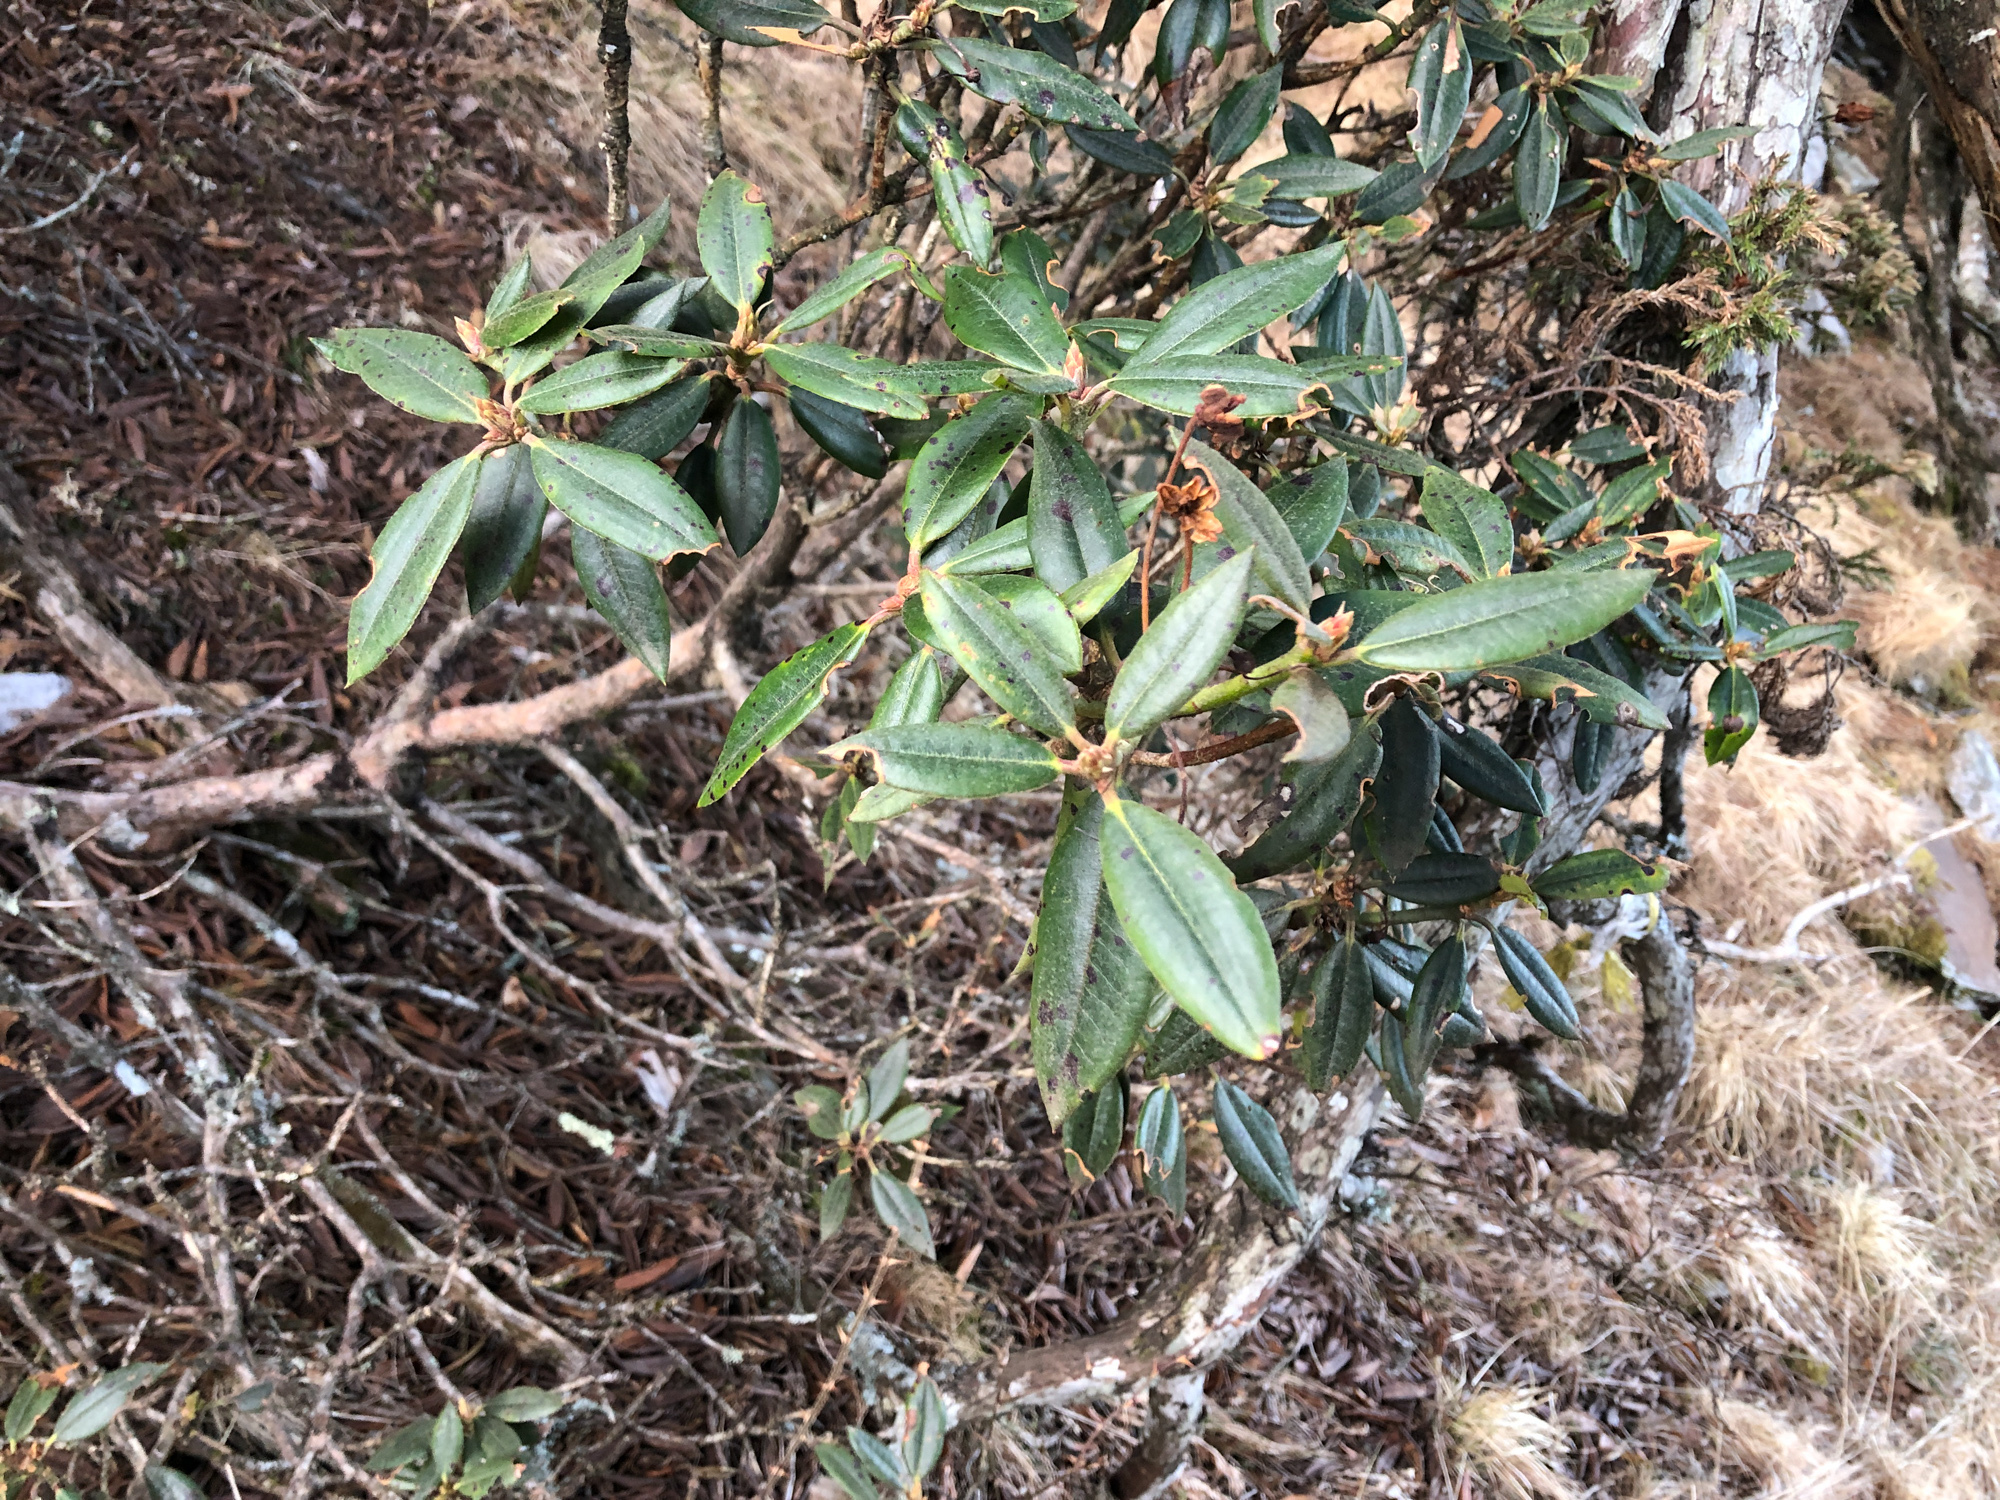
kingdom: Plantae
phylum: Tracheophyta
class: Magnoliopsida
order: Ericales
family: Ericaceae
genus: Rhododendron
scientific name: Rhododendron pseudochrysanthum
